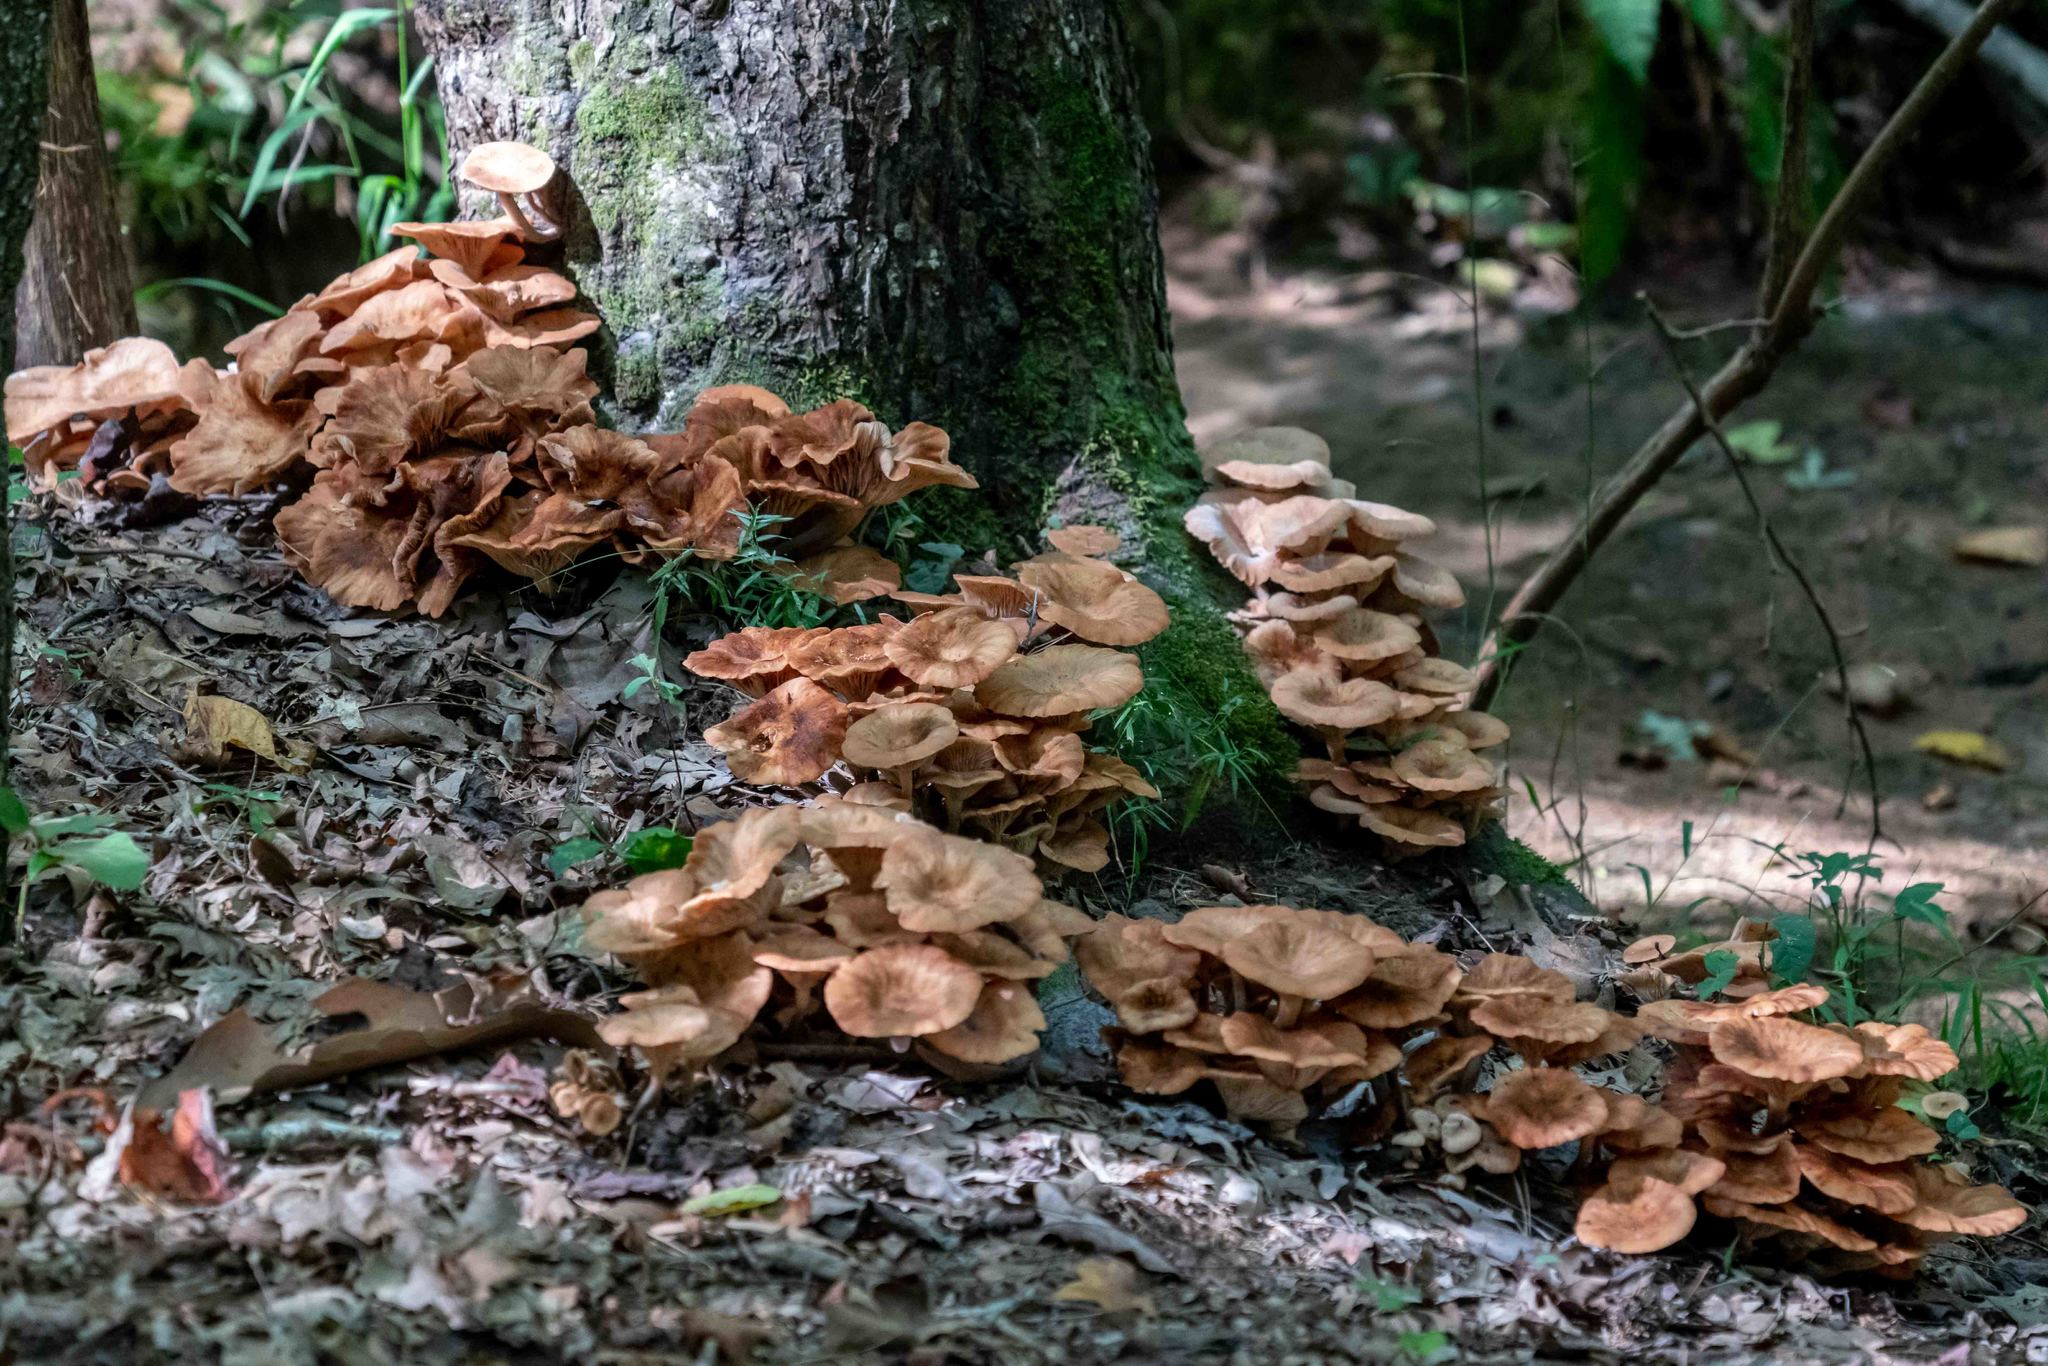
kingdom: Fungi
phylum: Basidiomycota
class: Agaricomycetes
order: Agaricales
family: Physalacriaceae
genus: Desarmillaria
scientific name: Desarmillaria caespitosa
